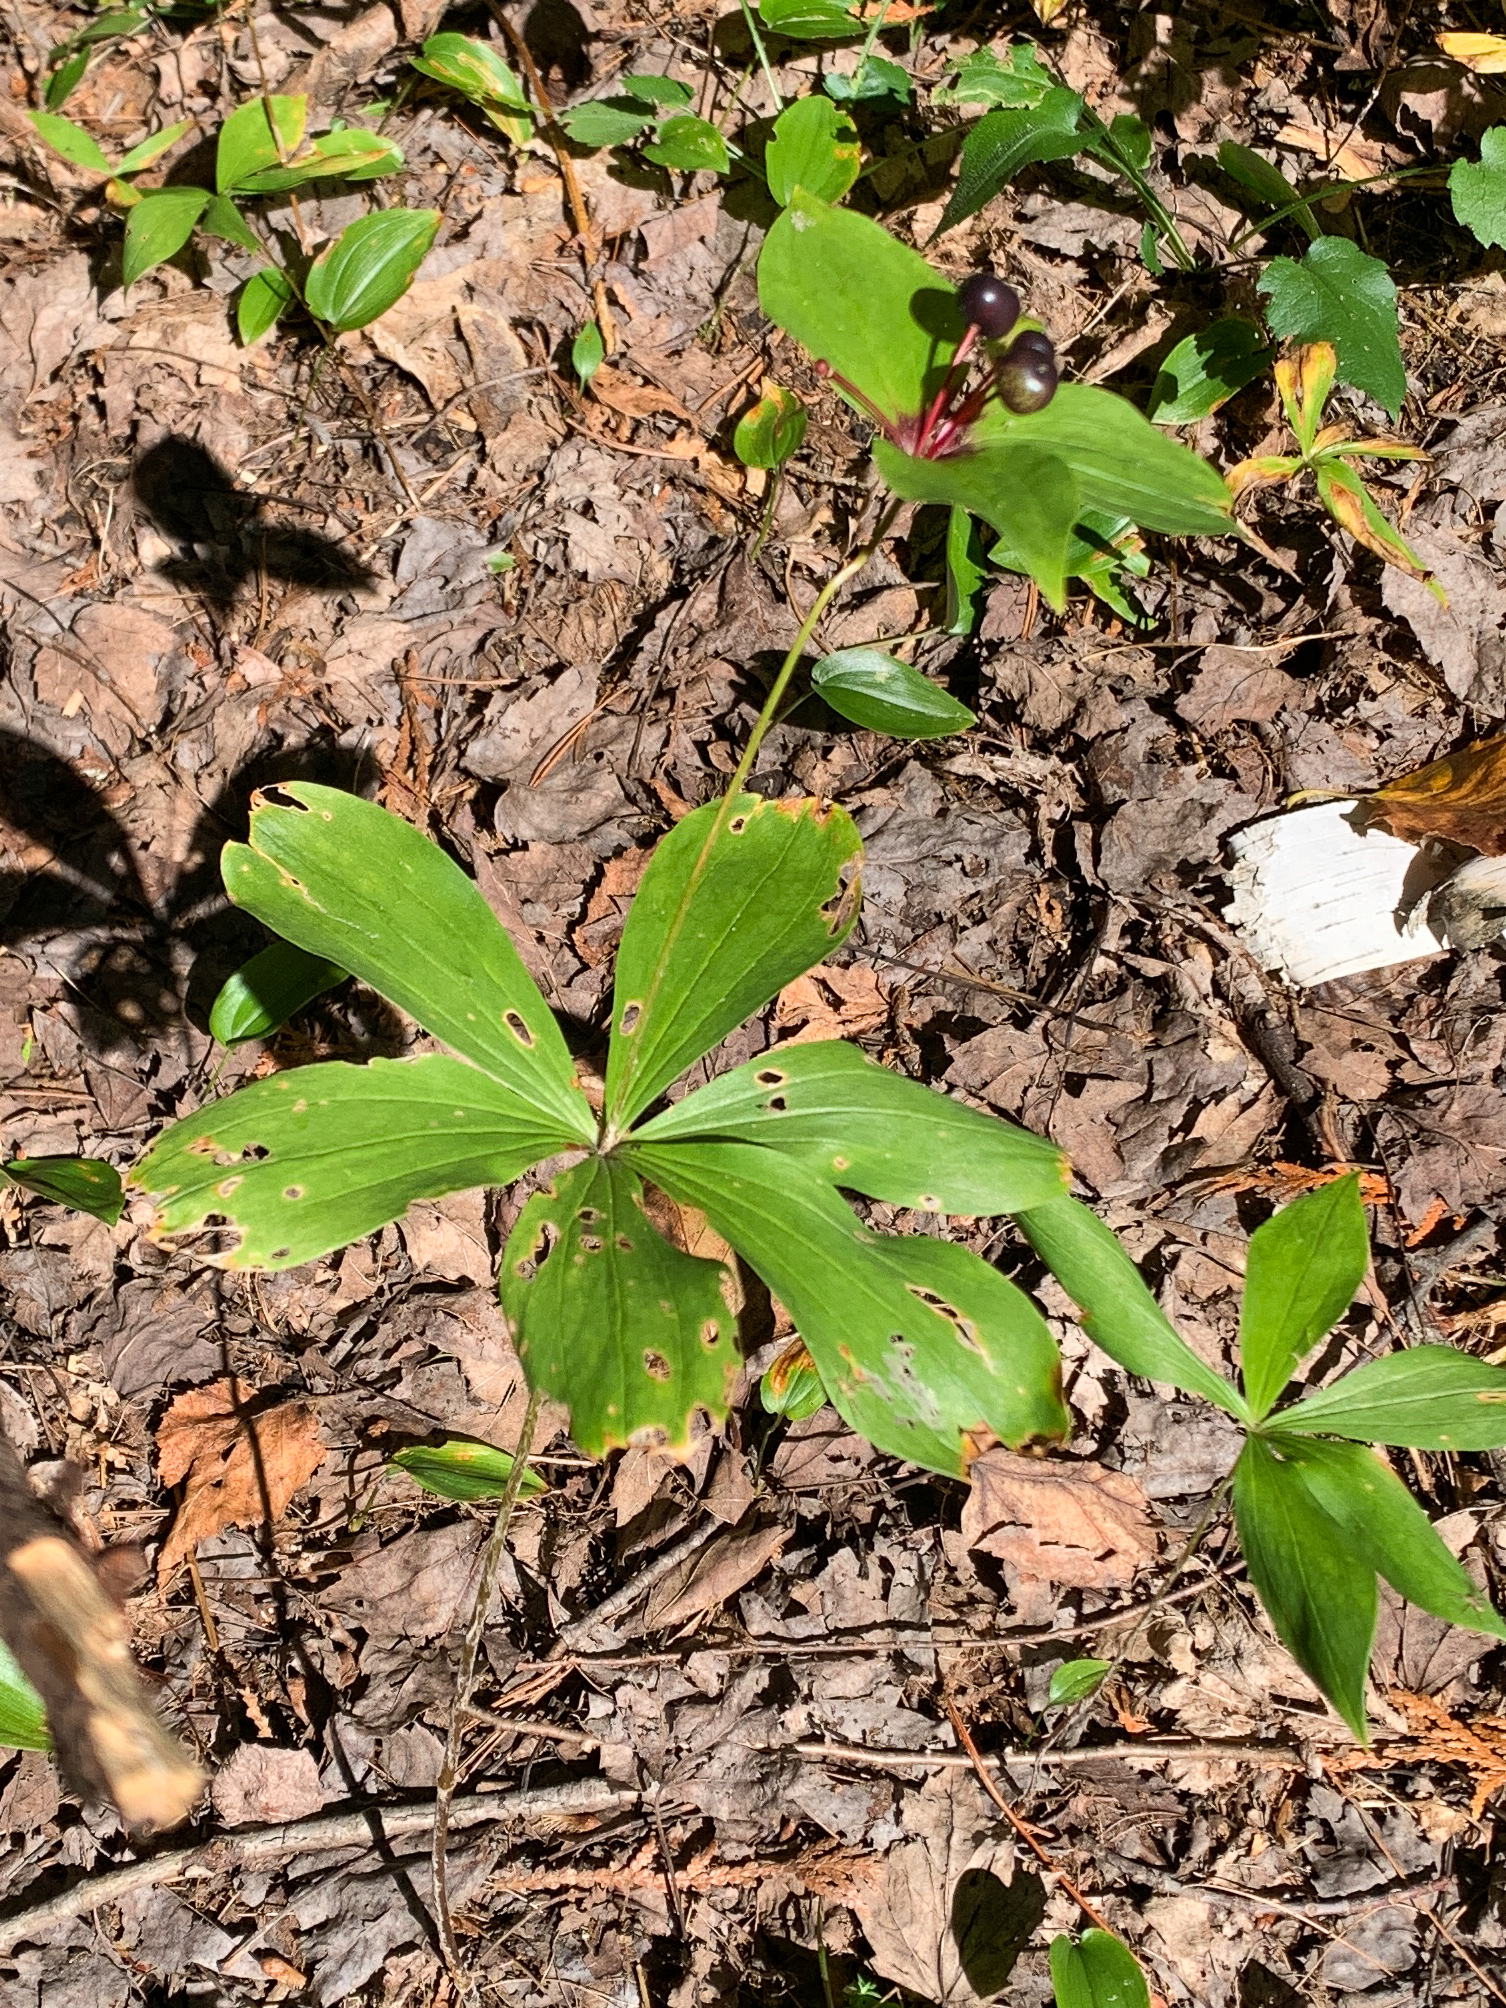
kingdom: Plantae
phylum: Tracheophyta
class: Liliopsida
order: Liliales
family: Liliaceae
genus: Medeola
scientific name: Medeola virginiana
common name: Indian cucumber-root
